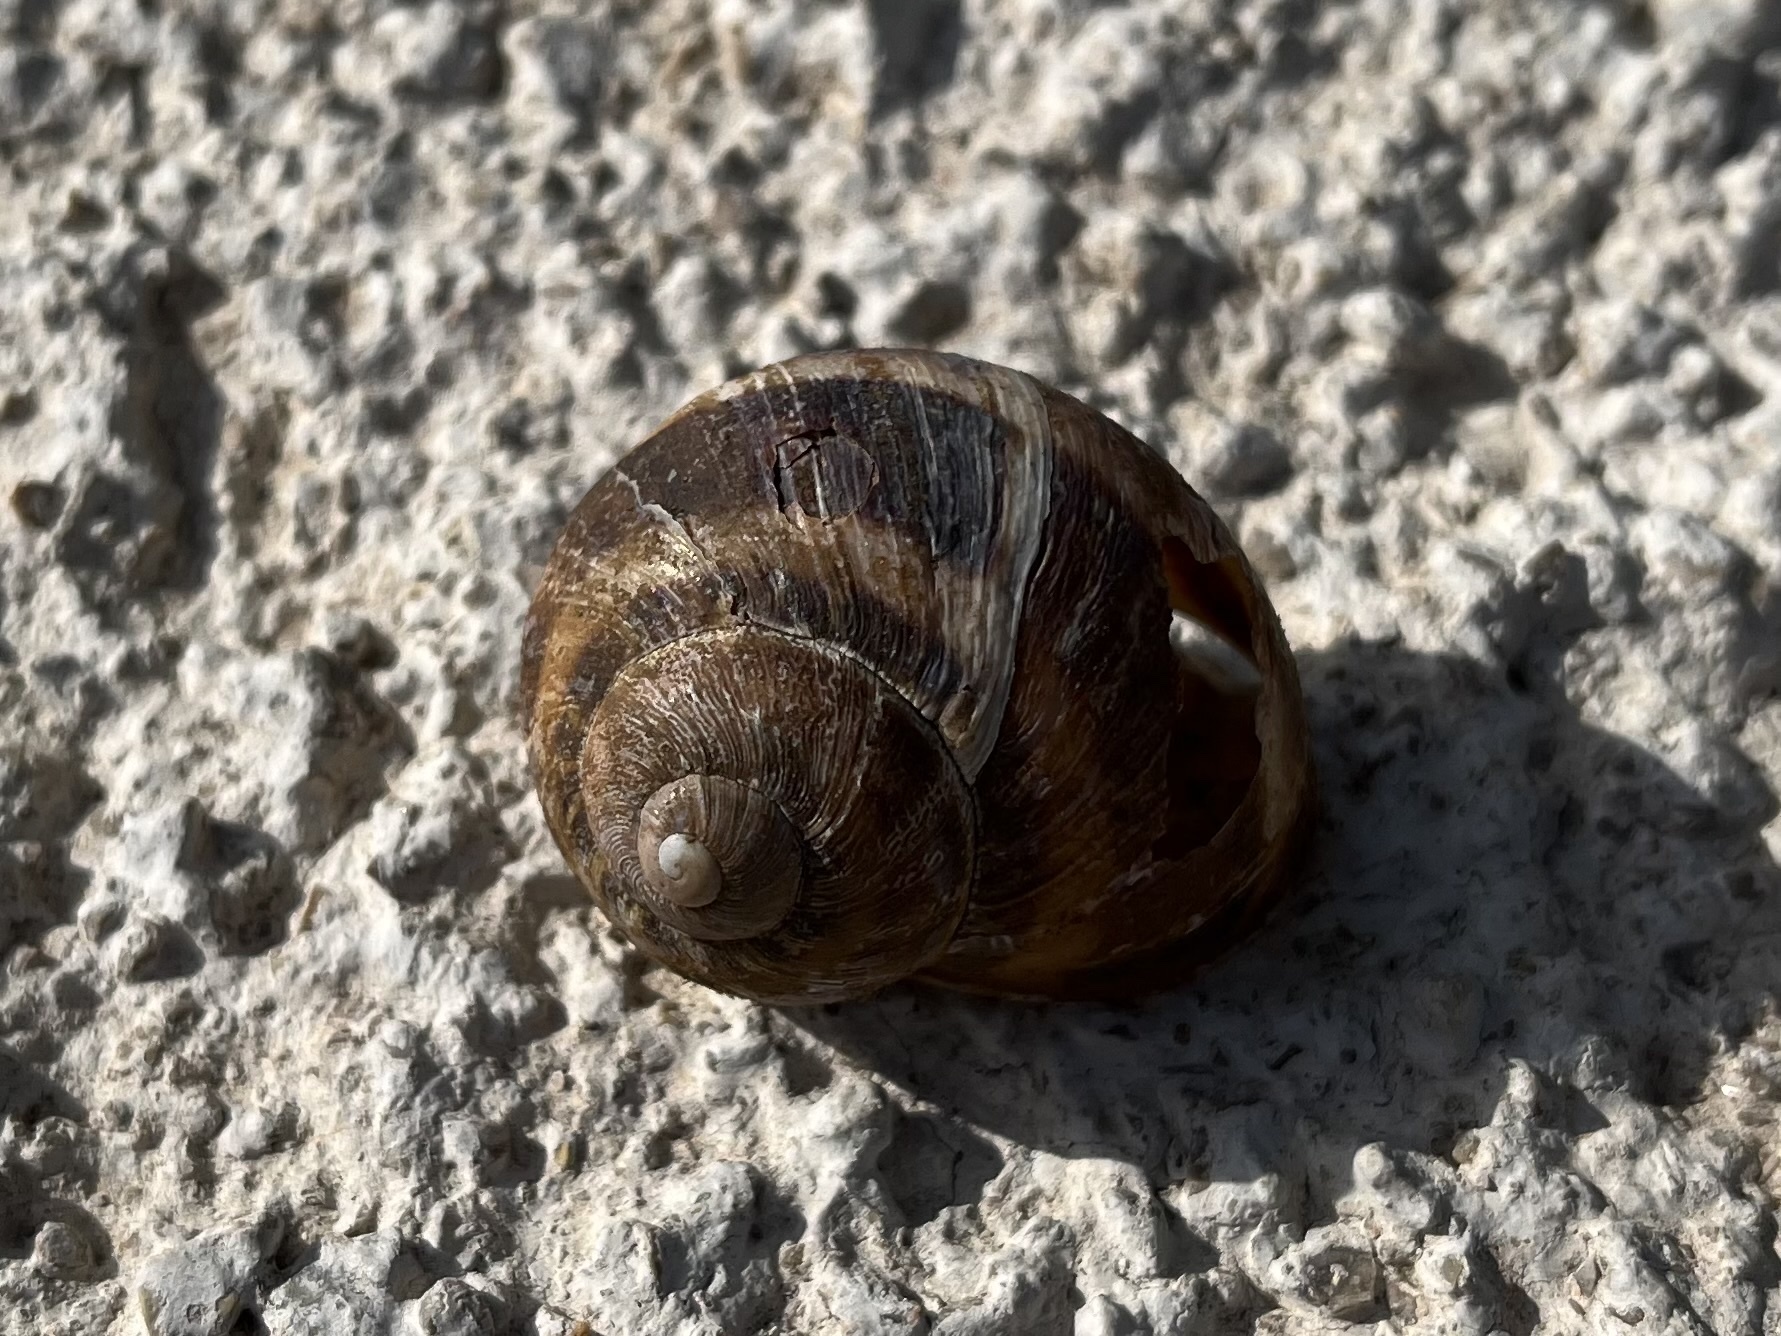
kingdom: Animalia
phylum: Mollusca
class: Gastropoda
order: Stylommatophora
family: Helicidae
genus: Cornu
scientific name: Cornu aspersum
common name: Brown garden snail
